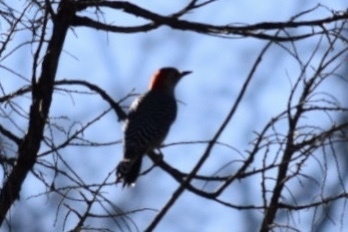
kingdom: Animalia
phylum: Chordata
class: Aves
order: Piciformes
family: Picidae
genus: Melanerpes
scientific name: Melanerpes carolinus
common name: Red-bellied woodpecker
